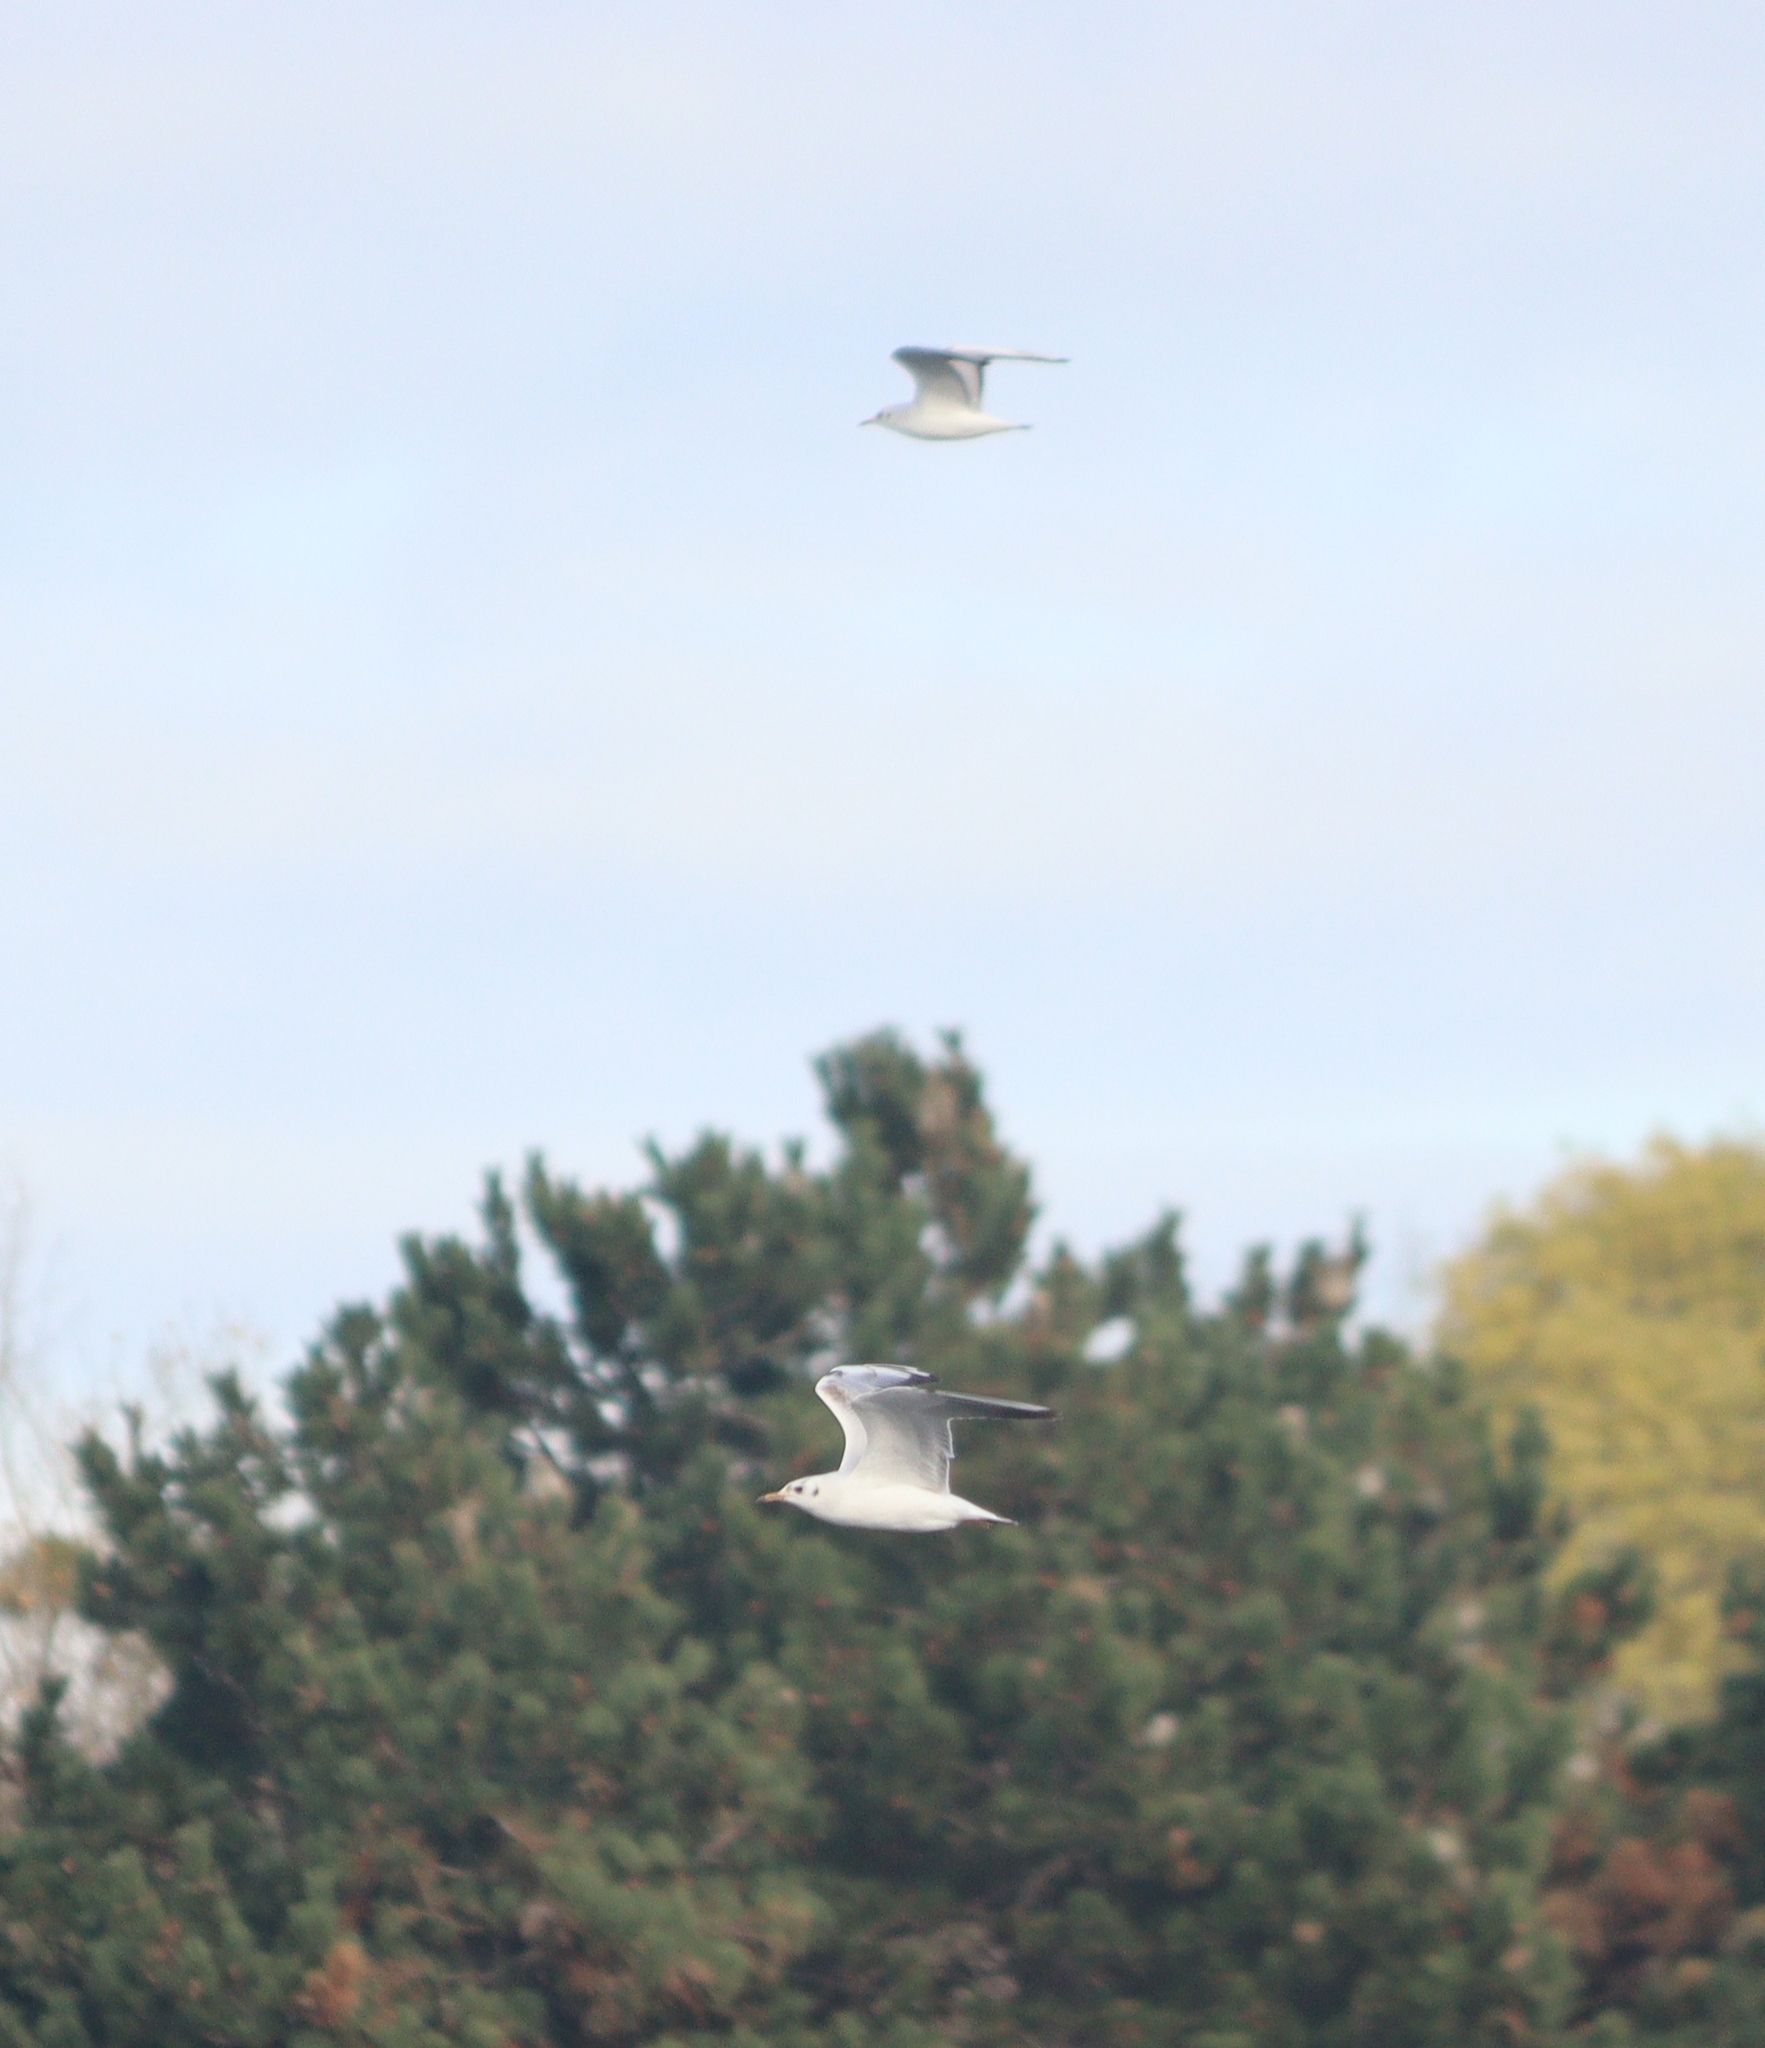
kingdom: Animalia
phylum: Chordata
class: Aves
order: Charadriiformes
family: Laridae
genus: Chroicocephalus
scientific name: Chroicocephalus ridibundus
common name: Black-headed gull
